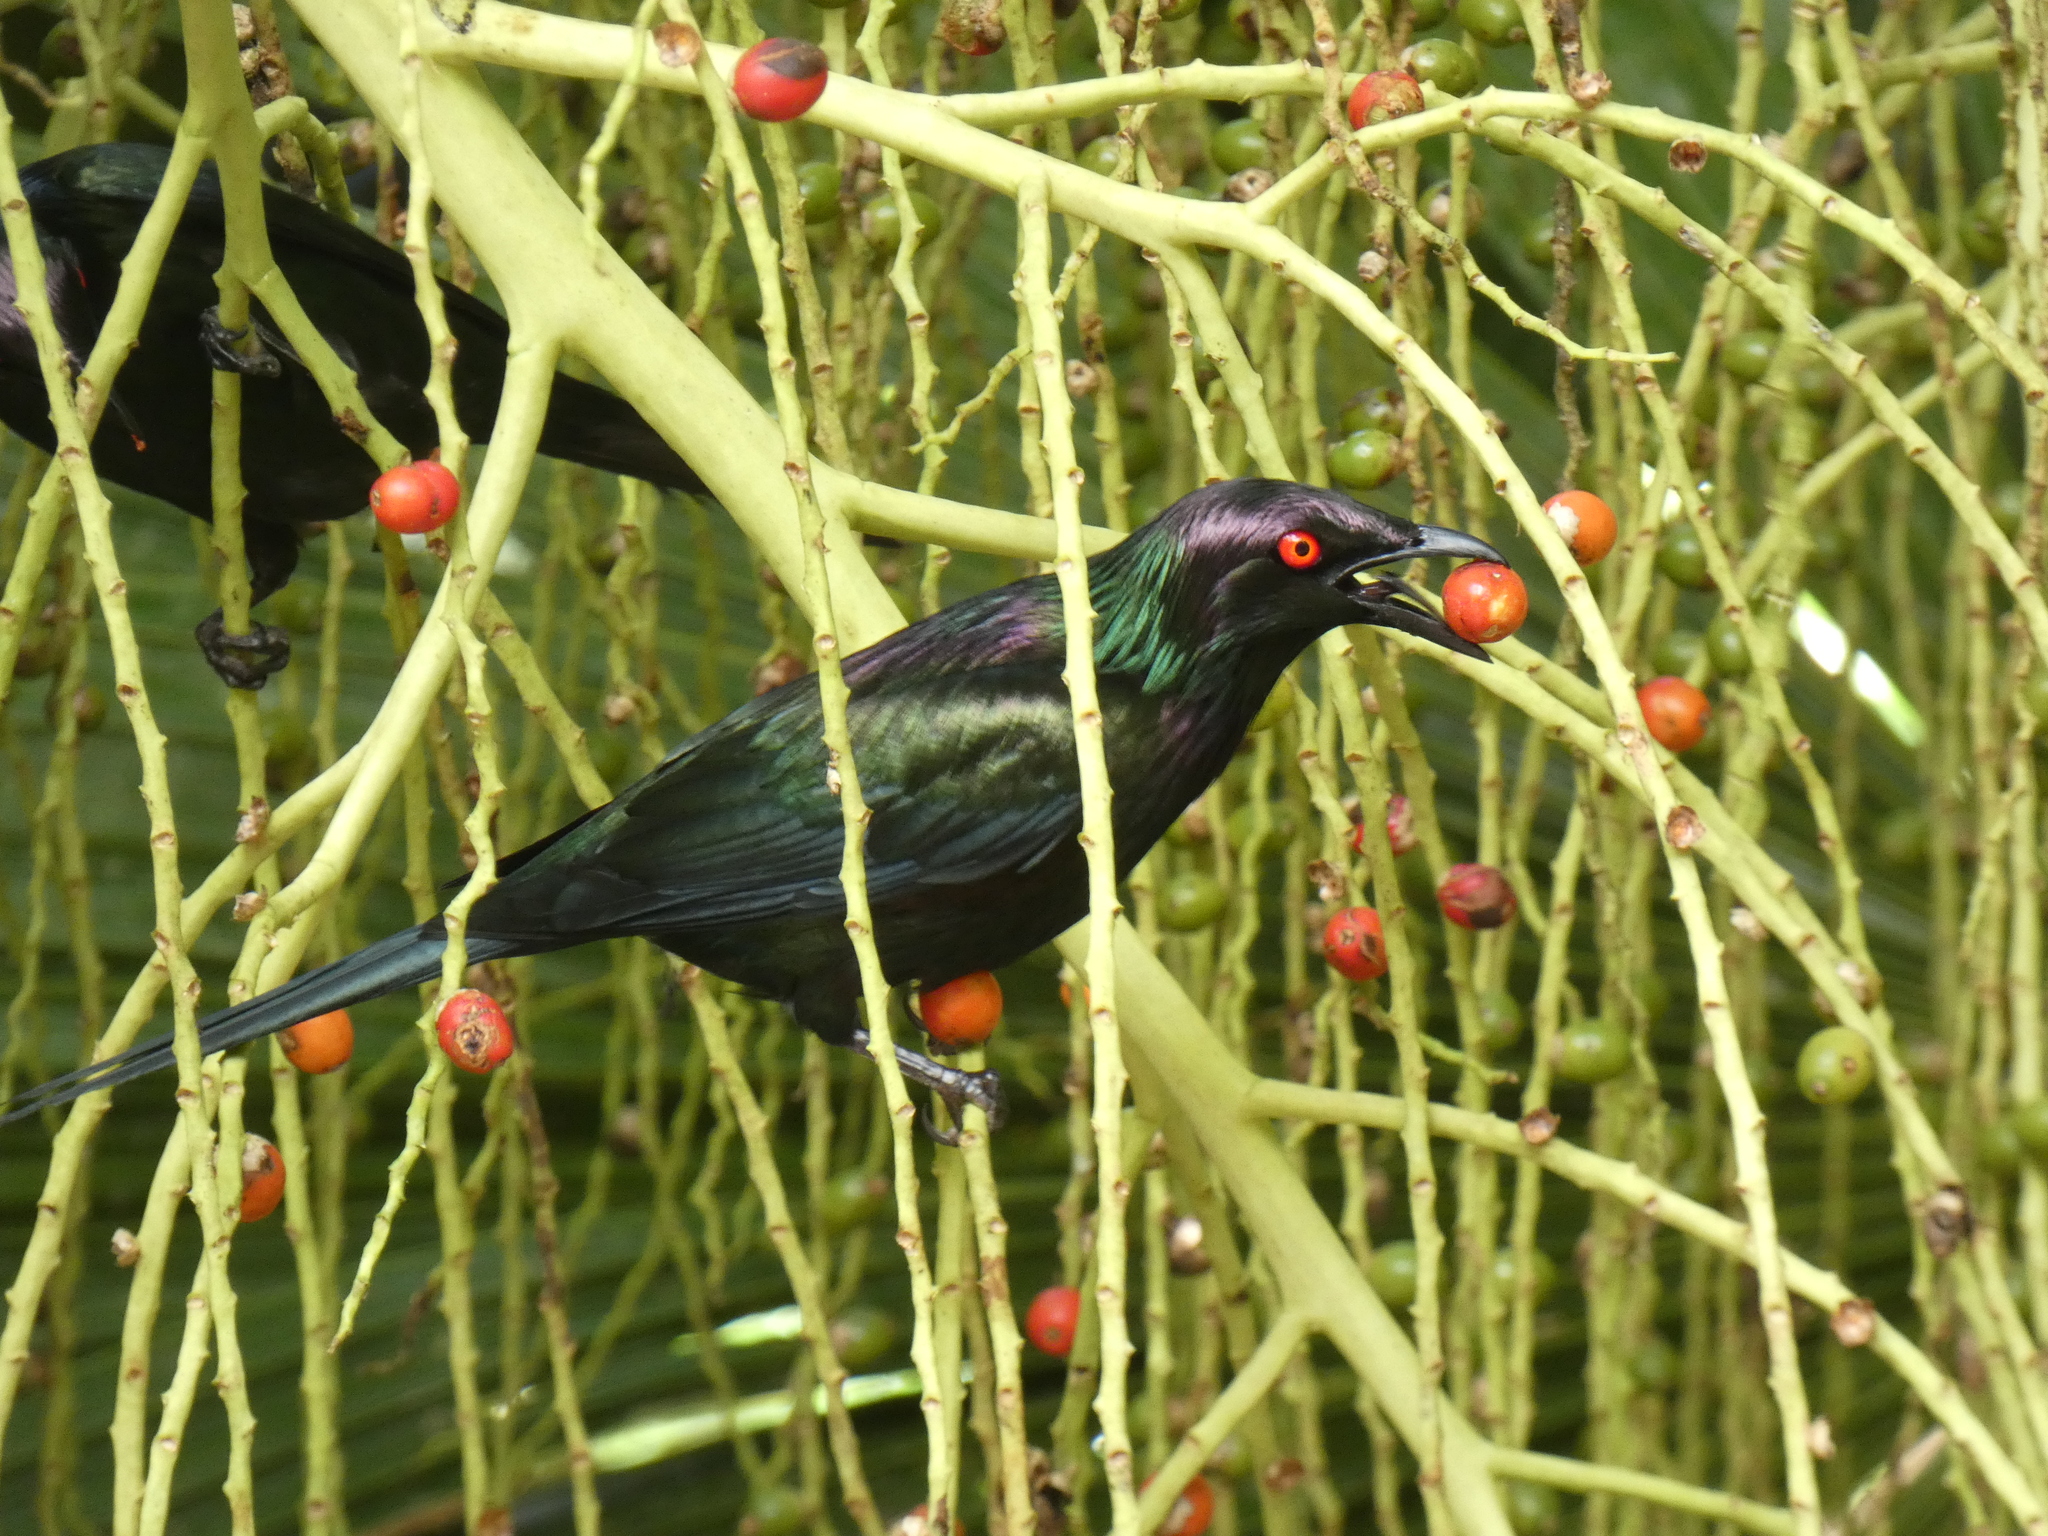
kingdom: Animalia
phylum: Chordata
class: Aves
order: Passeriformes
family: Sturnidae
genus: Aplonis
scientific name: Aplonis metallica
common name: Metallic starling
